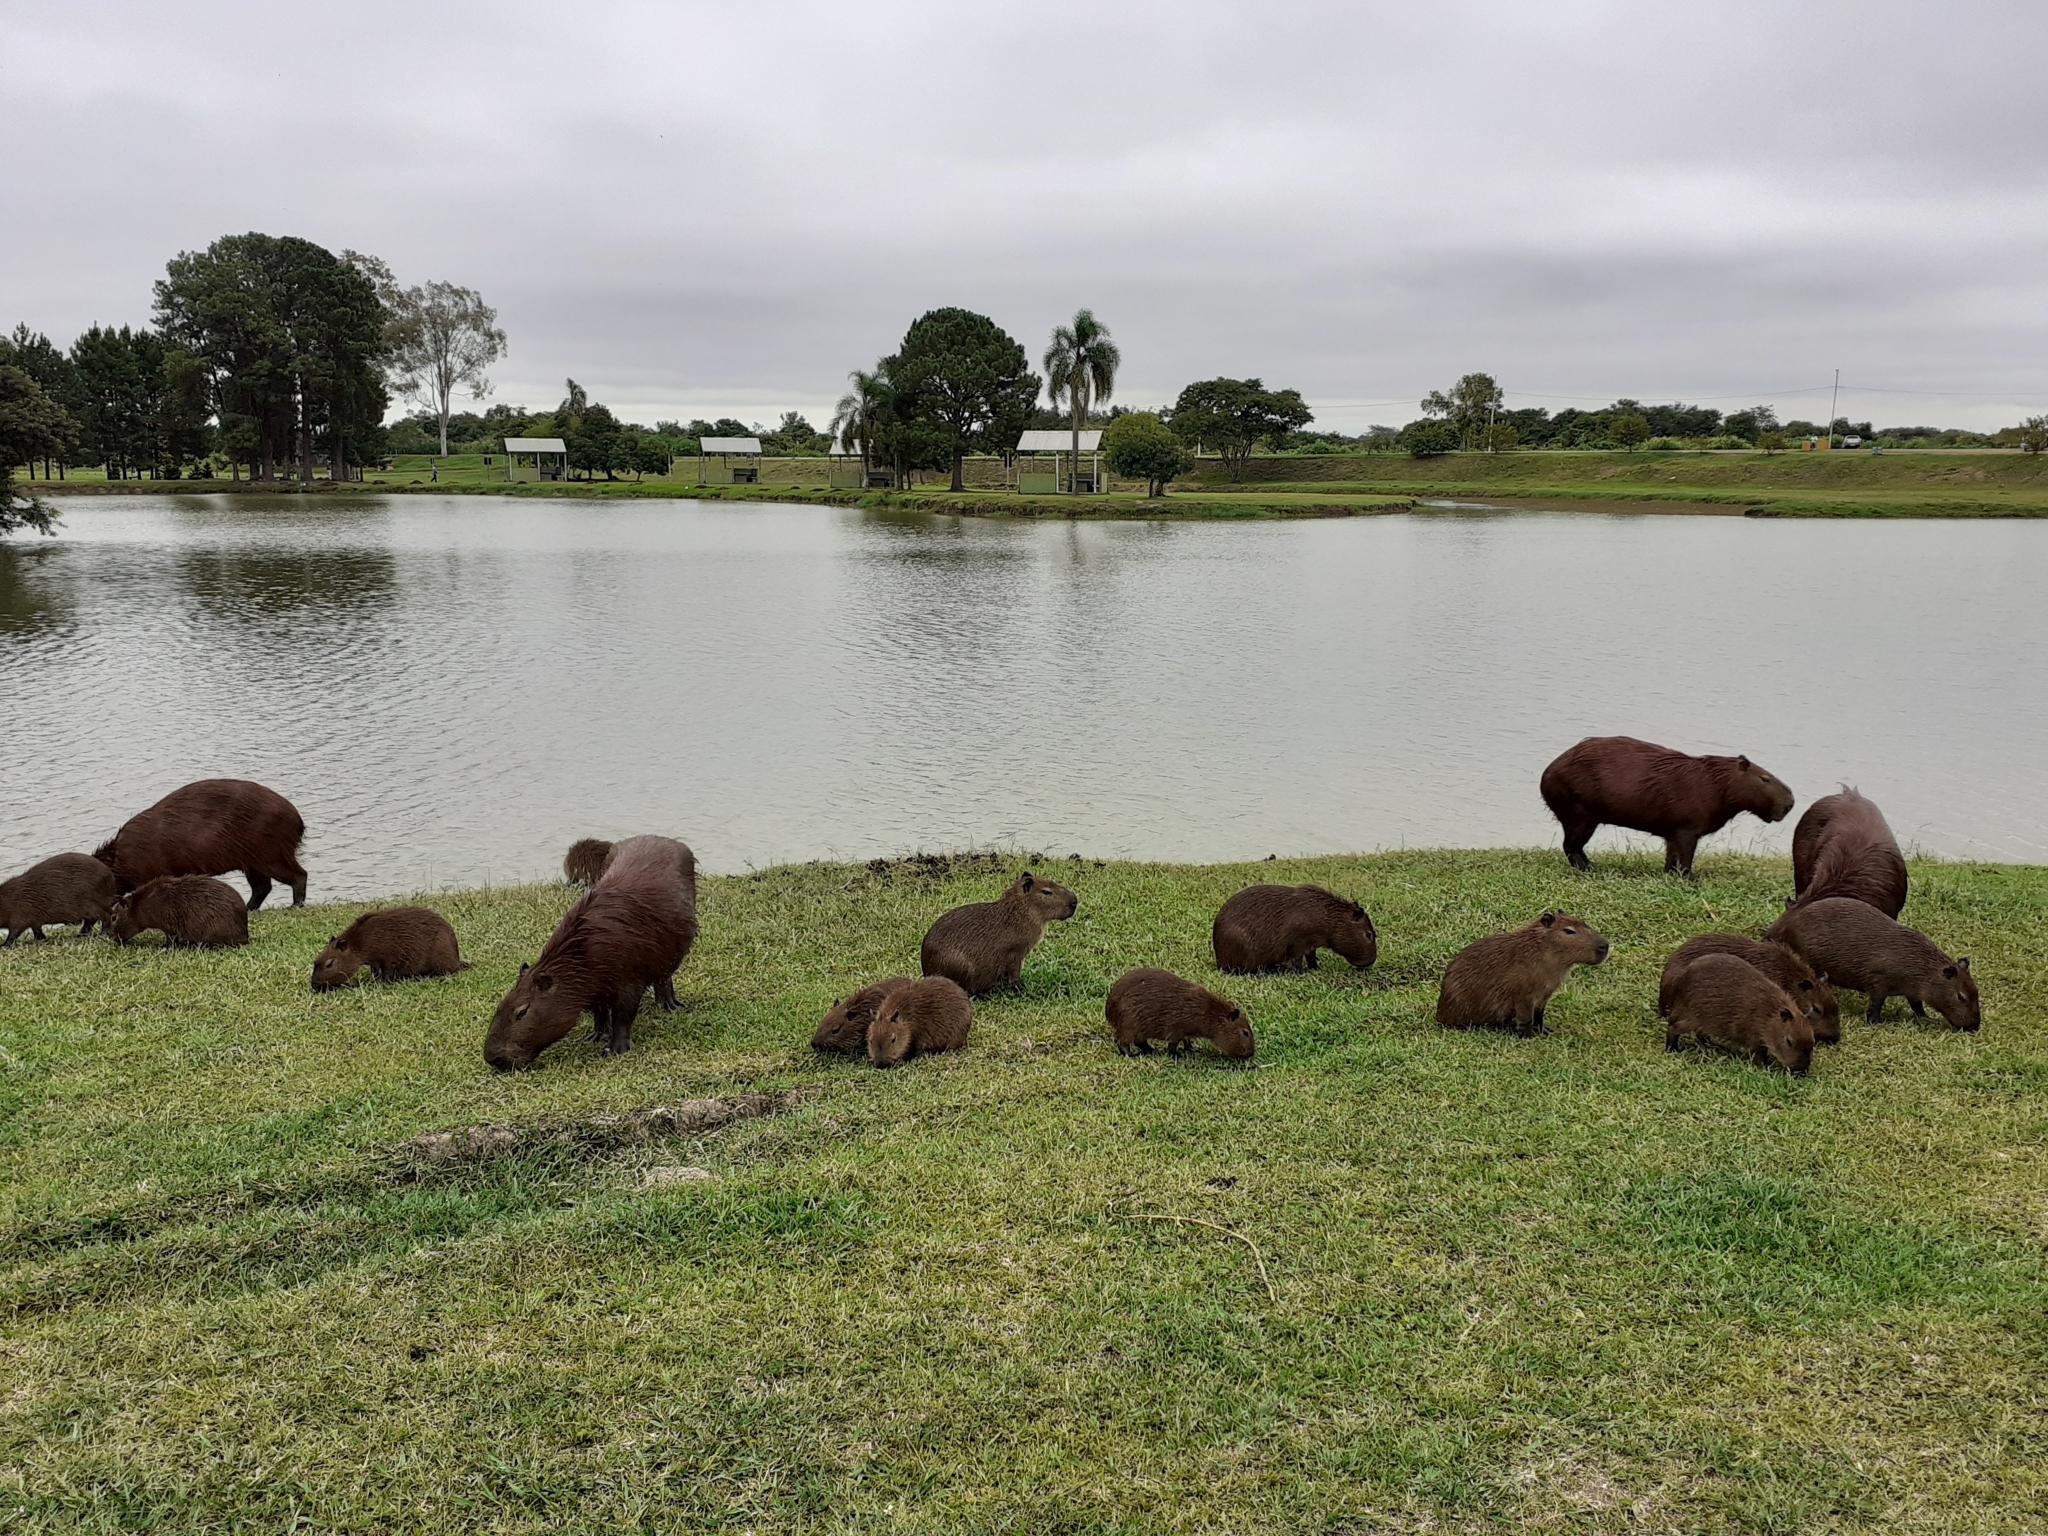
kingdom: Animalia
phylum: Chordata
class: Mammalia
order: Rodentia
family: Caviidae
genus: Hydrochoerus
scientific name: Hydrochoerus hydrochaeris
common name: Capybara
